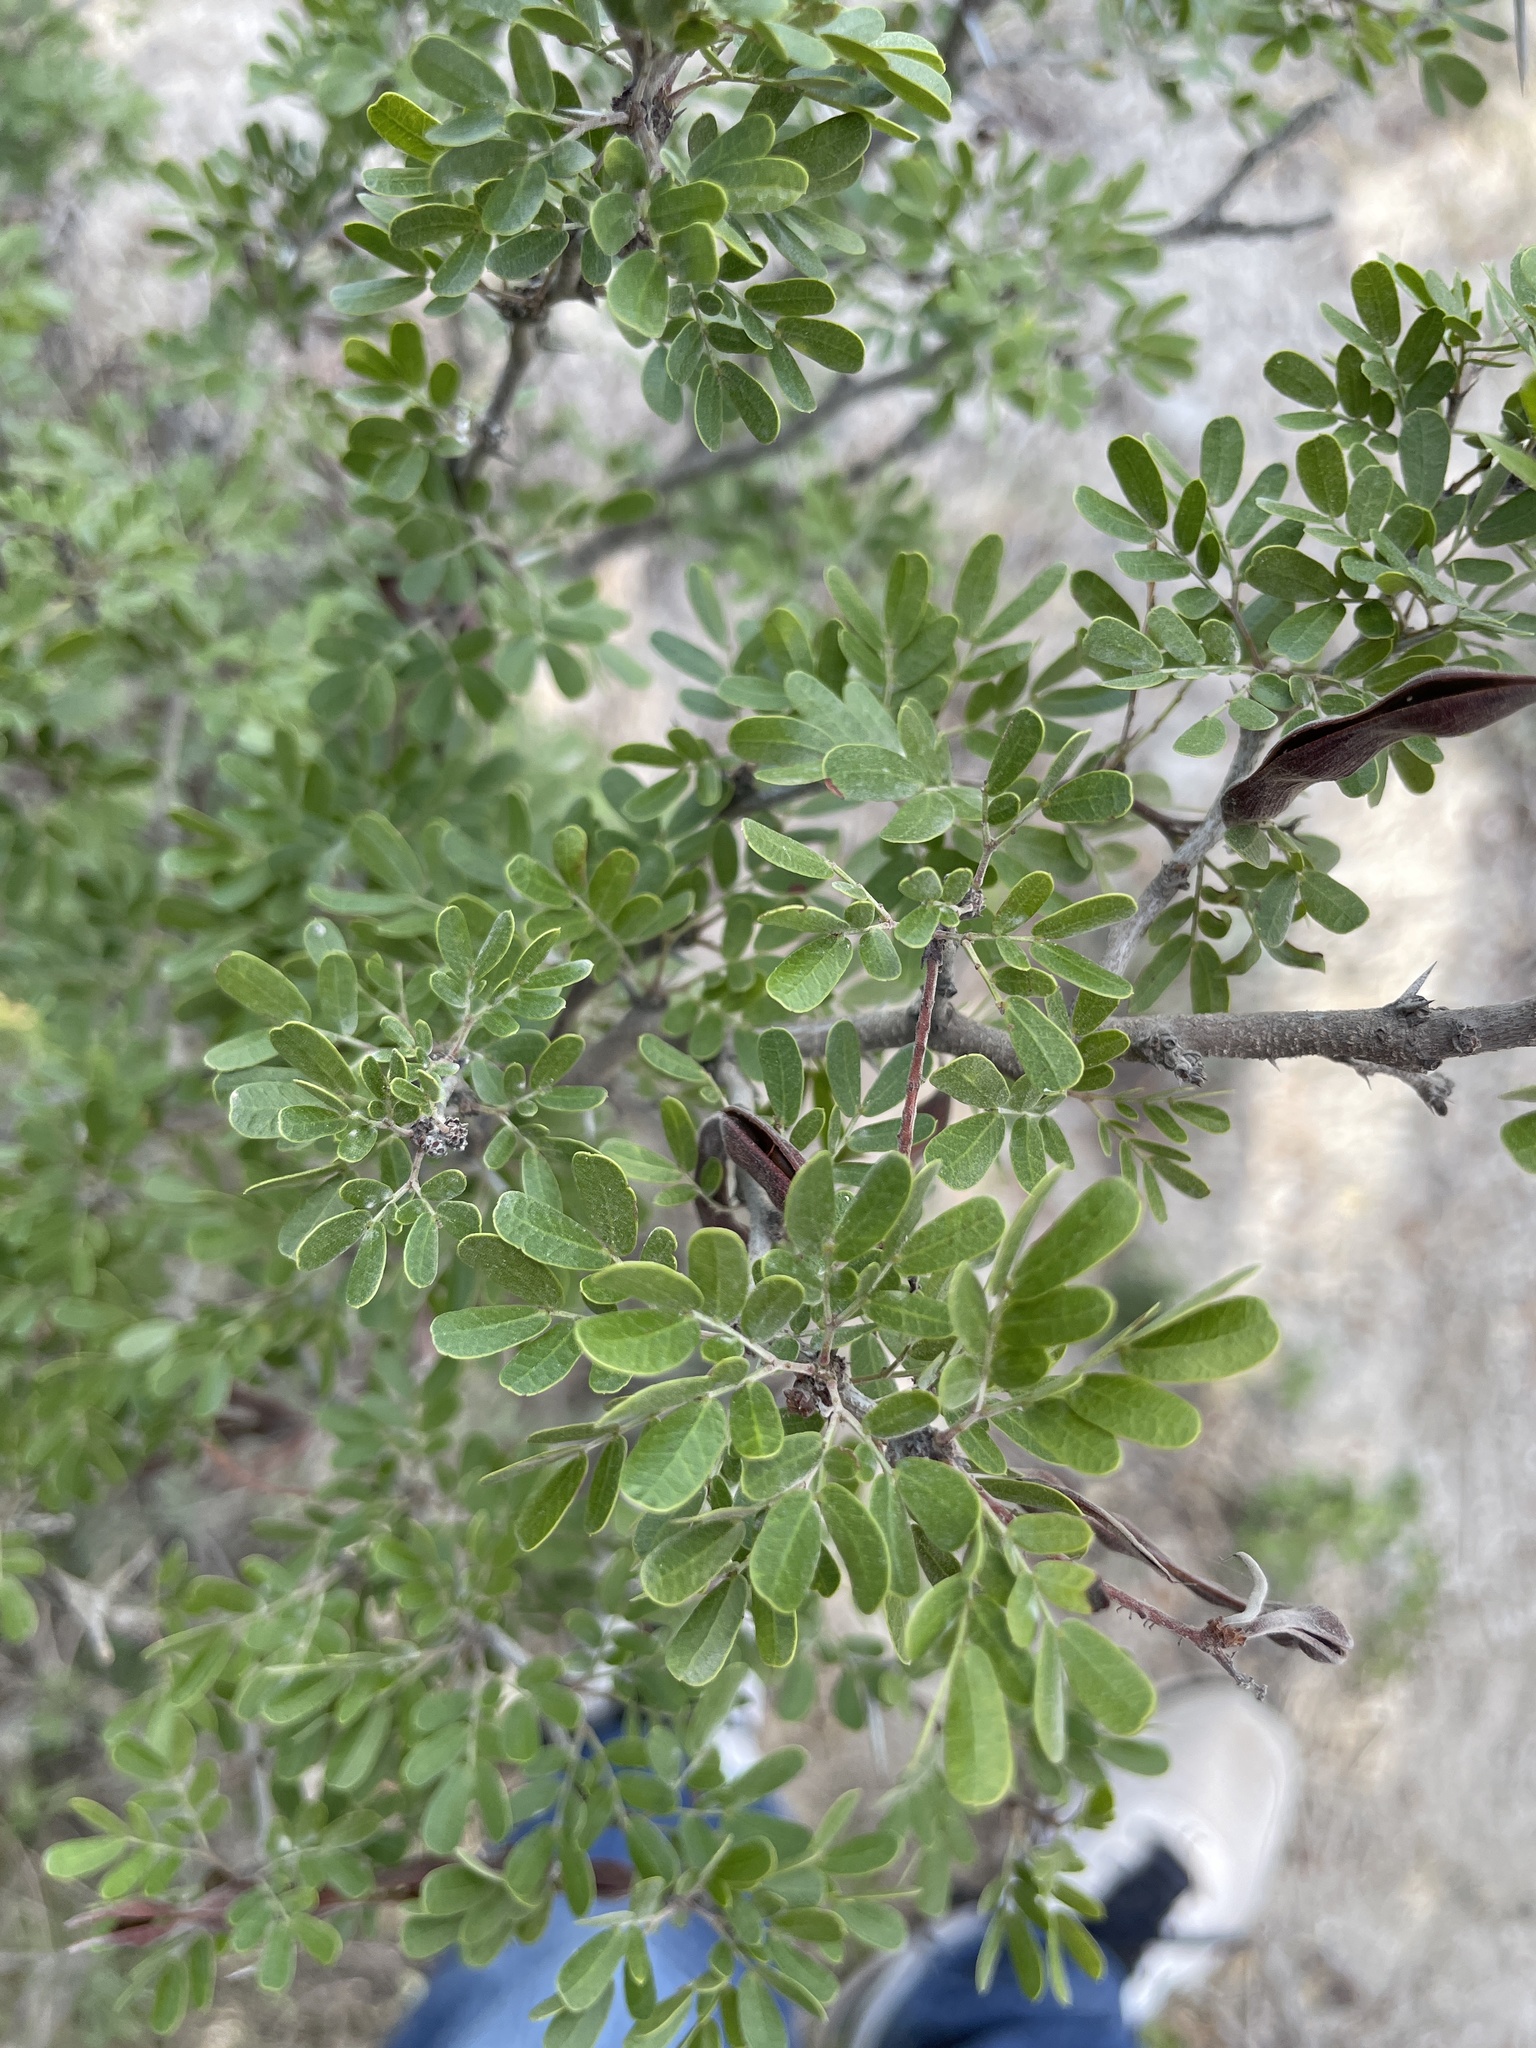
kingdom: Plantae
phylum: Tracheophyta
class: Magnoliopsida
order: Fabales
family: Fabaceae
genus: Vachellia
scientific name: Vachellia rigidula
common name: Blackbrush
